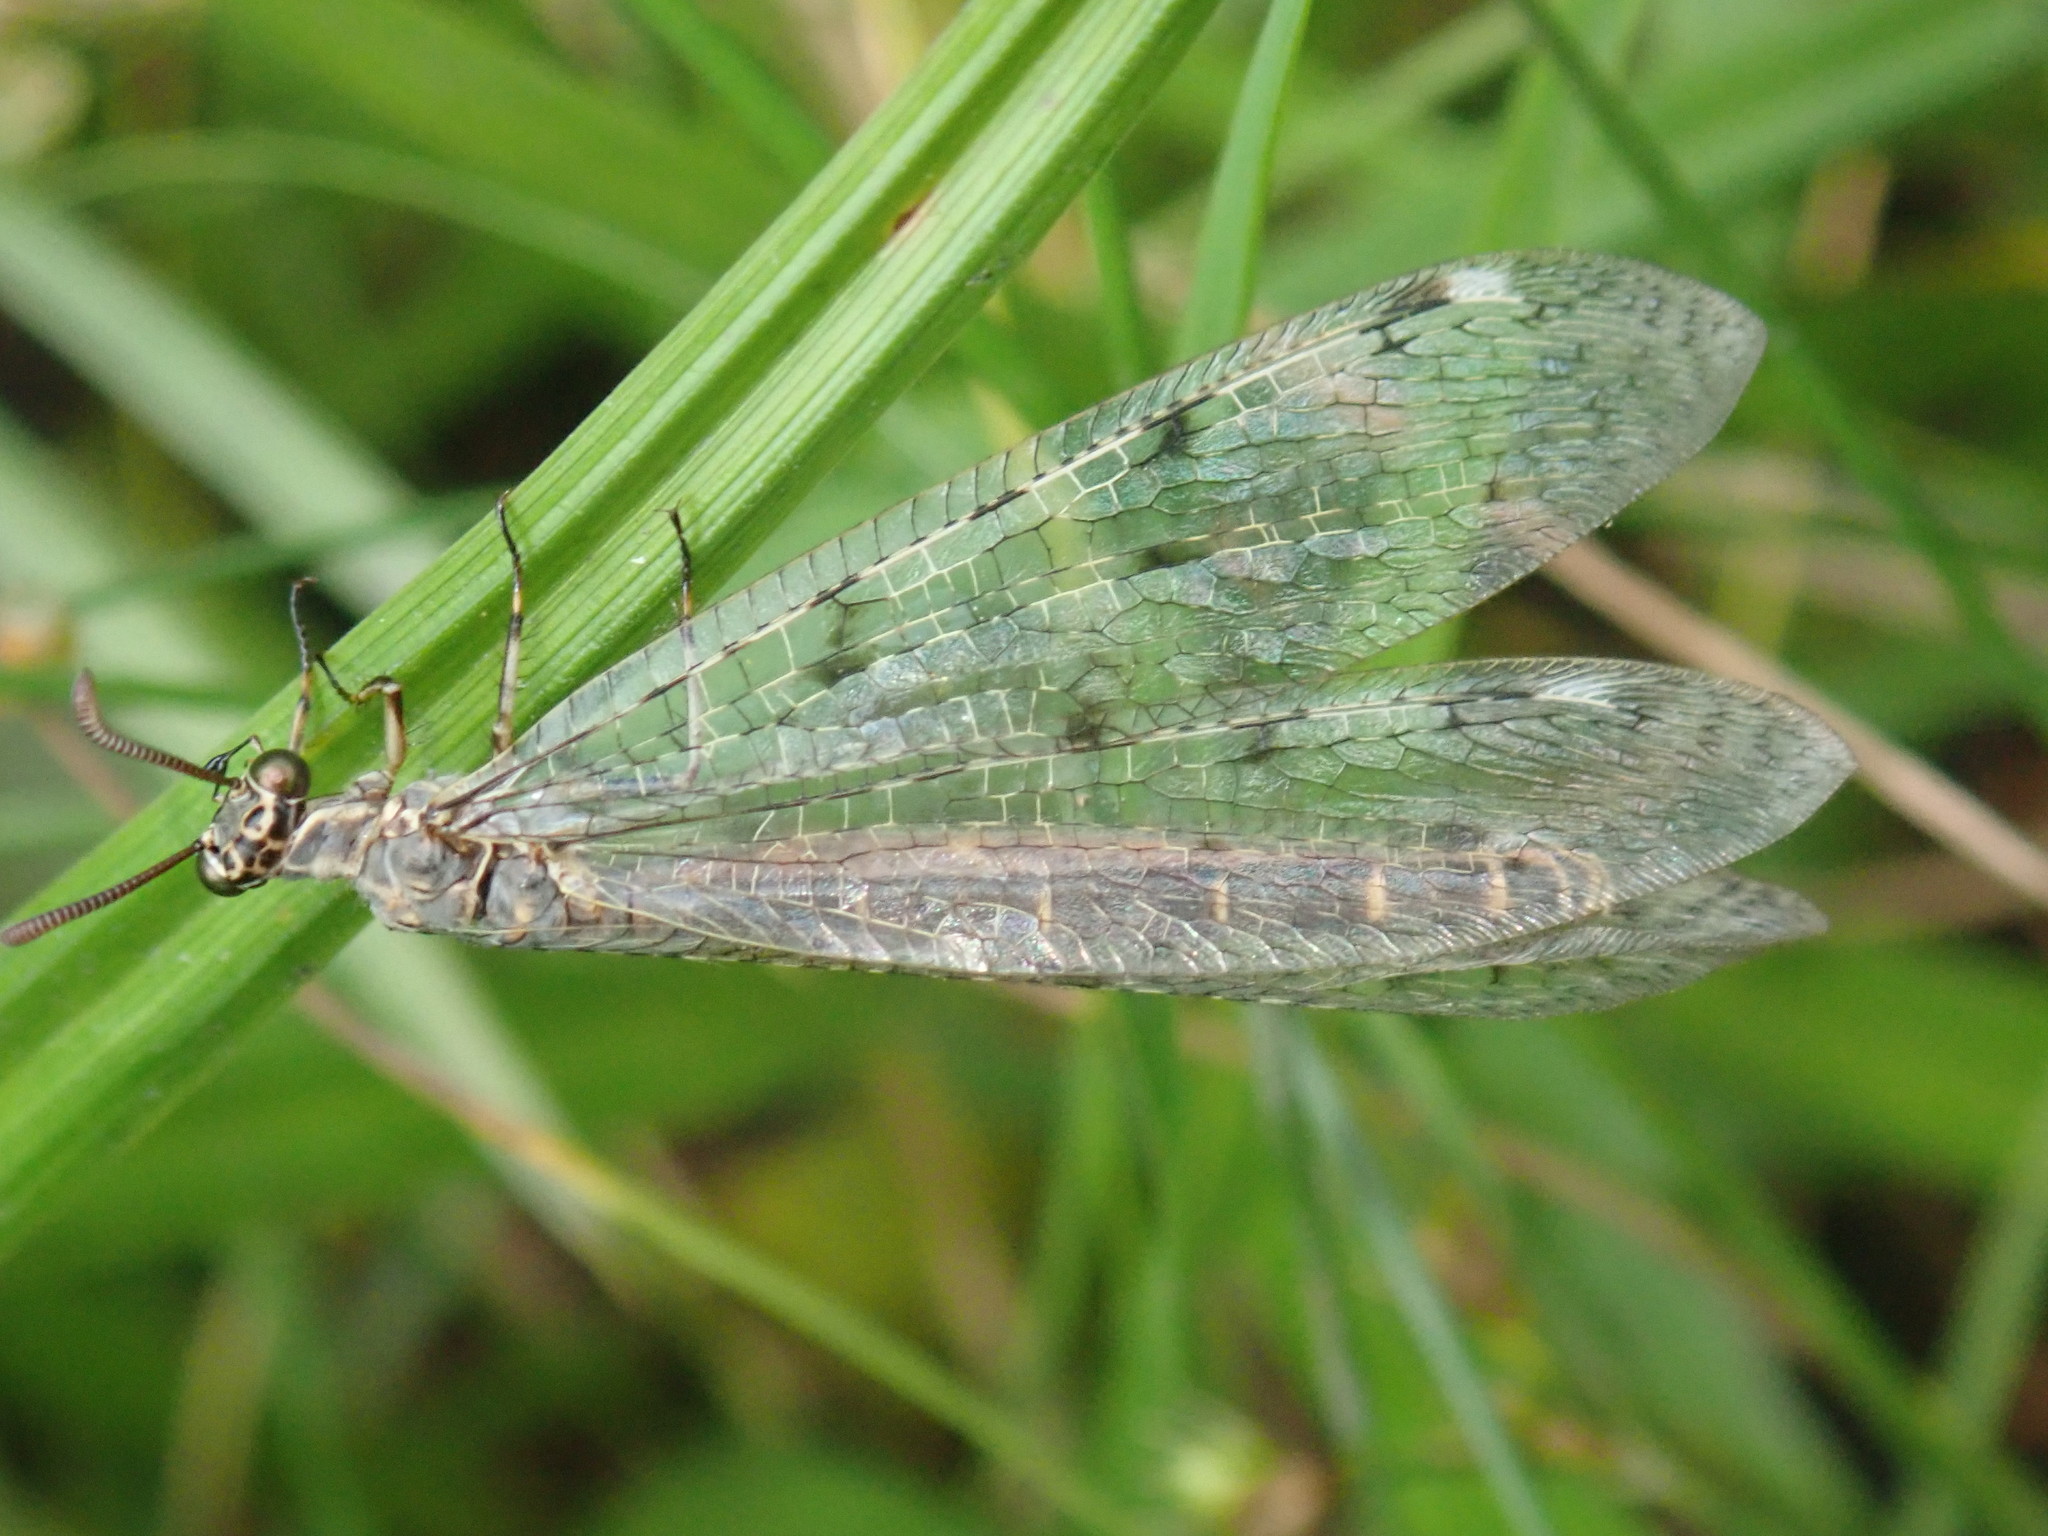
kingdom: Animalia
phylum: Arthropoda
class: Insecta
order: Neuroptera
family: Myrmeleontidae
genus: Euroleon
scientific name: Euroleon nostras
